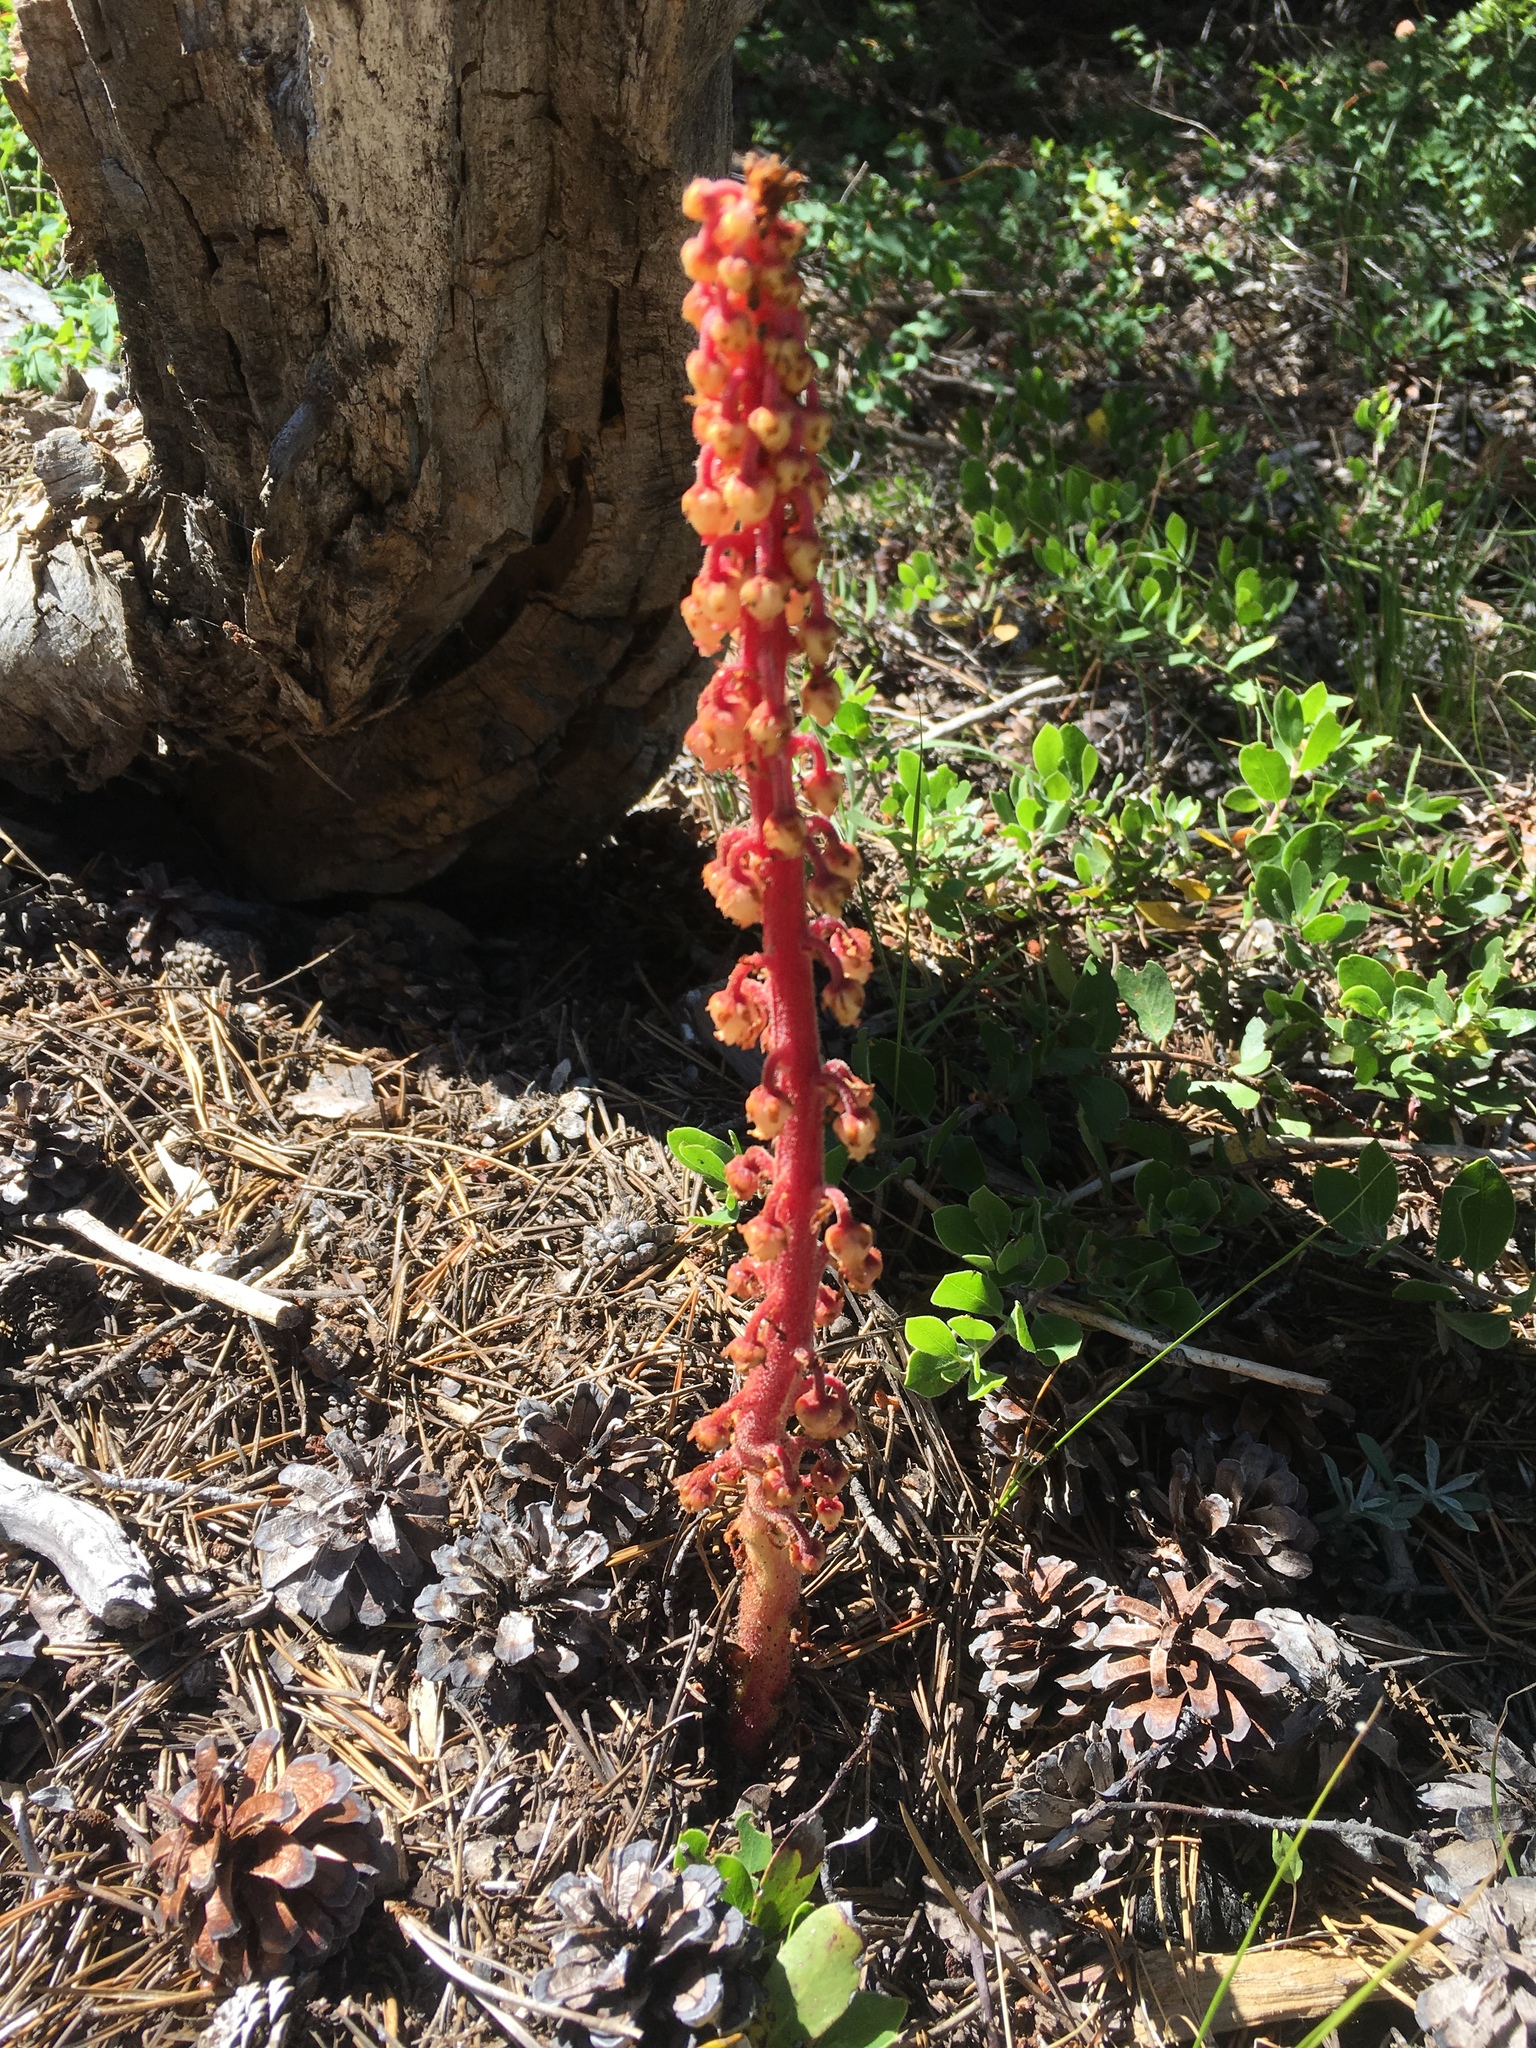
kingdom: Plantae
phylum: Tracheophyta
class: Magnoliopsida
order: Ericales
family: Ericaceae
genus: Pterospora
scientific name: Pterospora andromedea
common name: Giant bird's-nest
